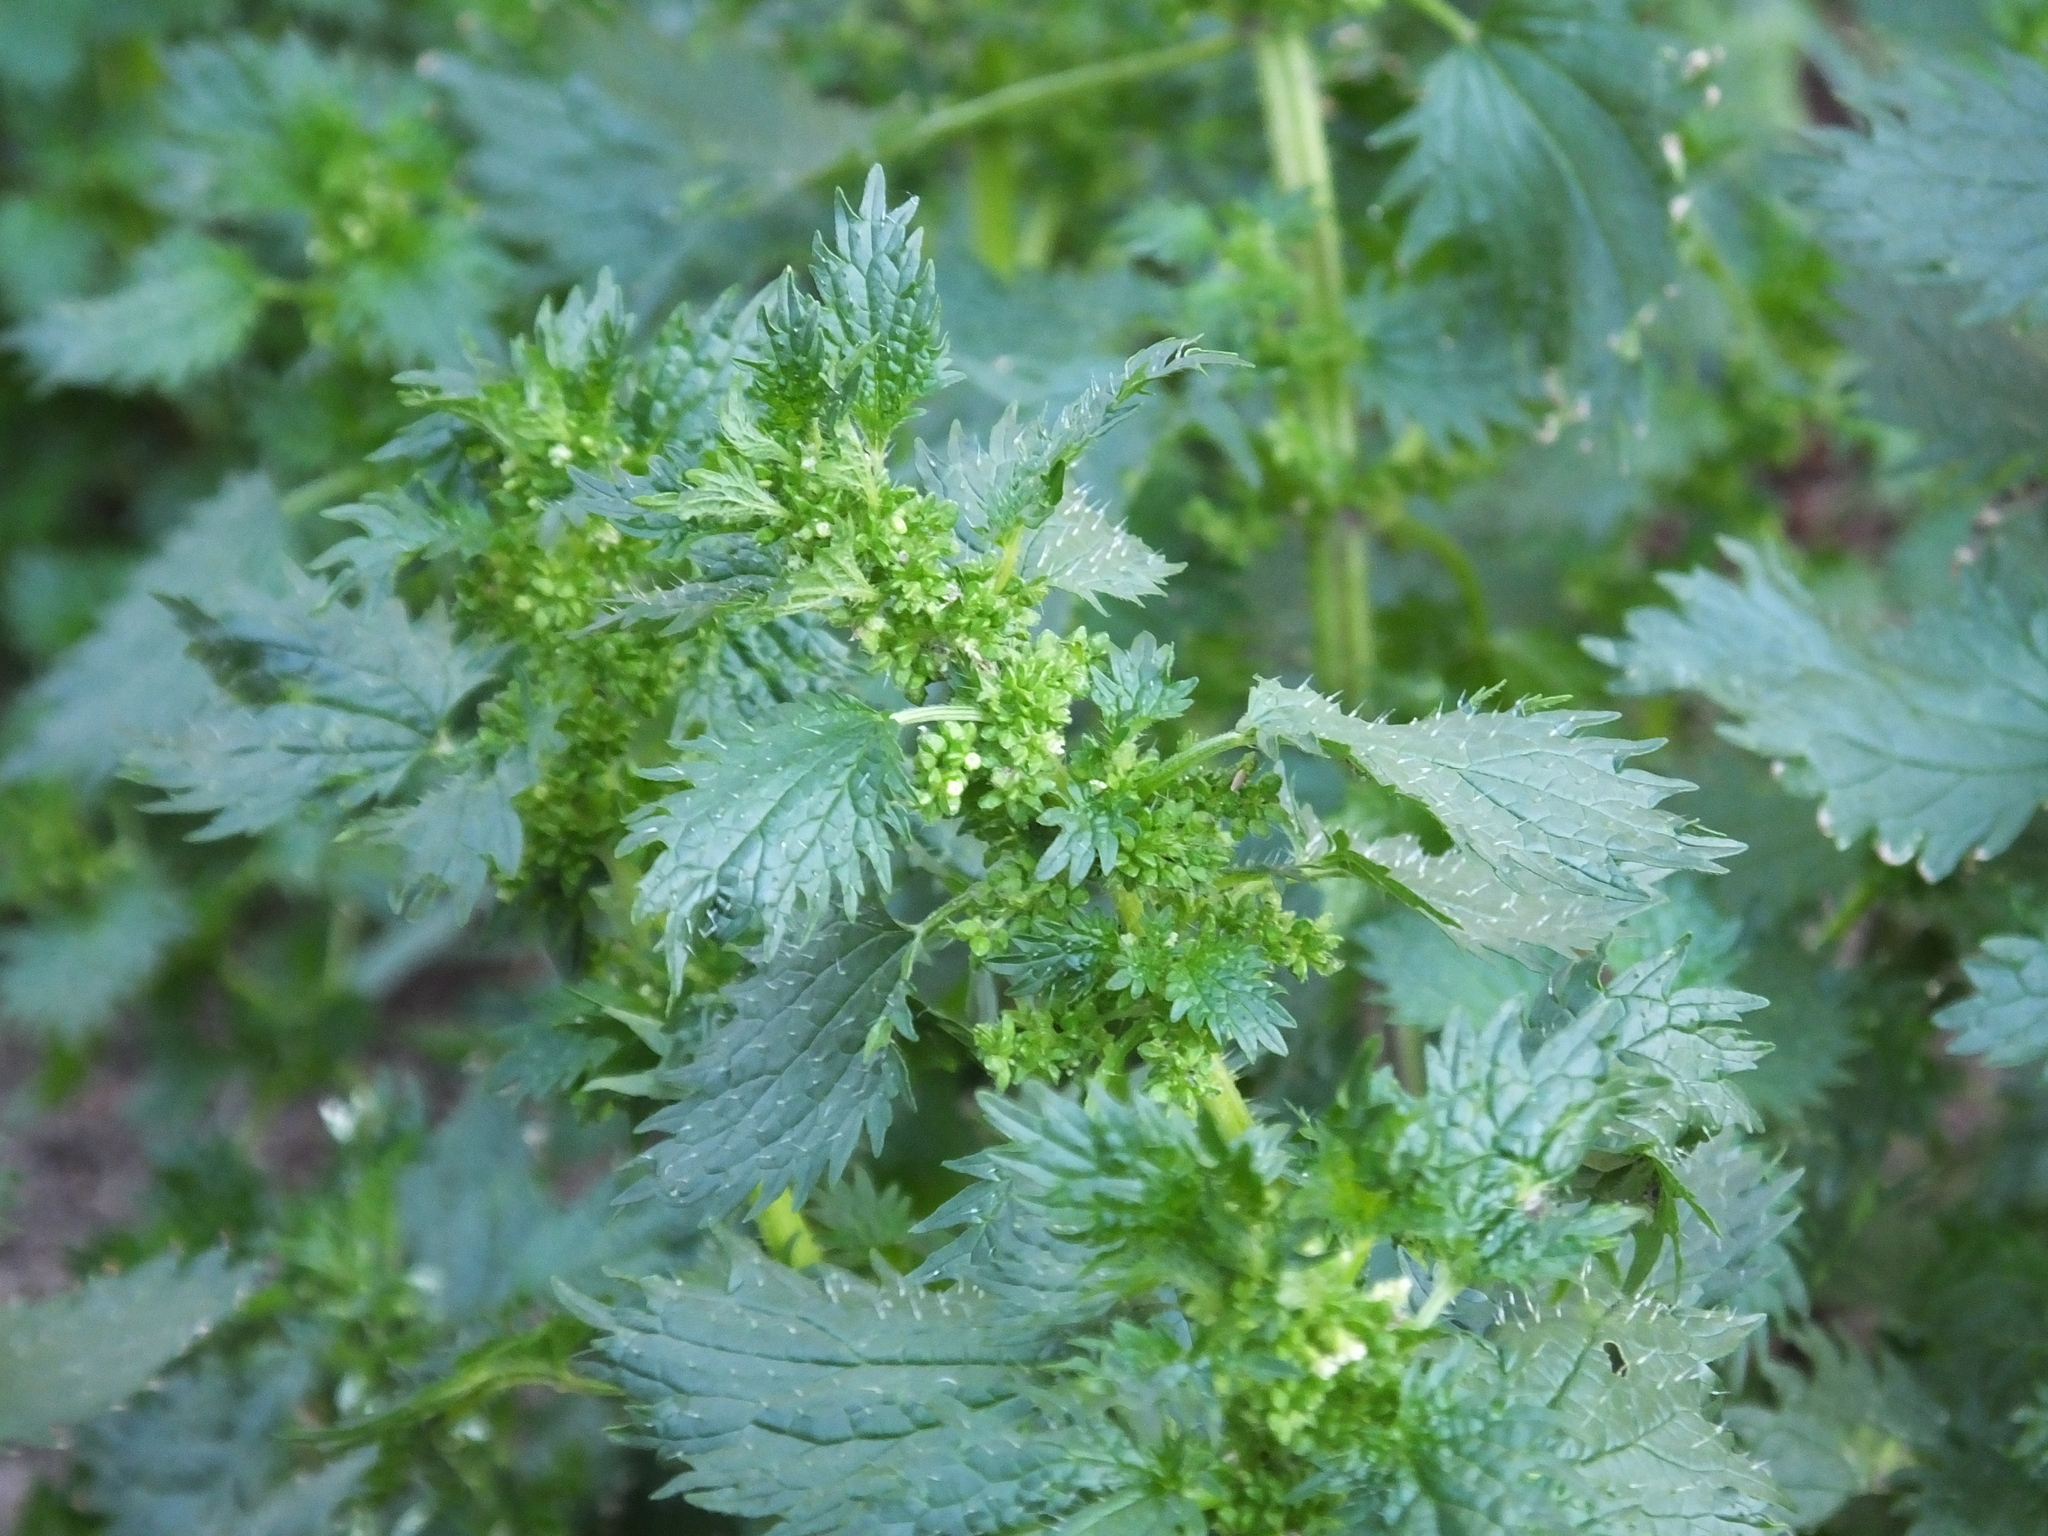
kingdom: Plantae
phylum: Tracheophyta
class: Magnoliopsida
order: Rosales
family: Urticaceae
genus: Urtica
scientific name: Urtica urens
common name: Dwarf nettle
